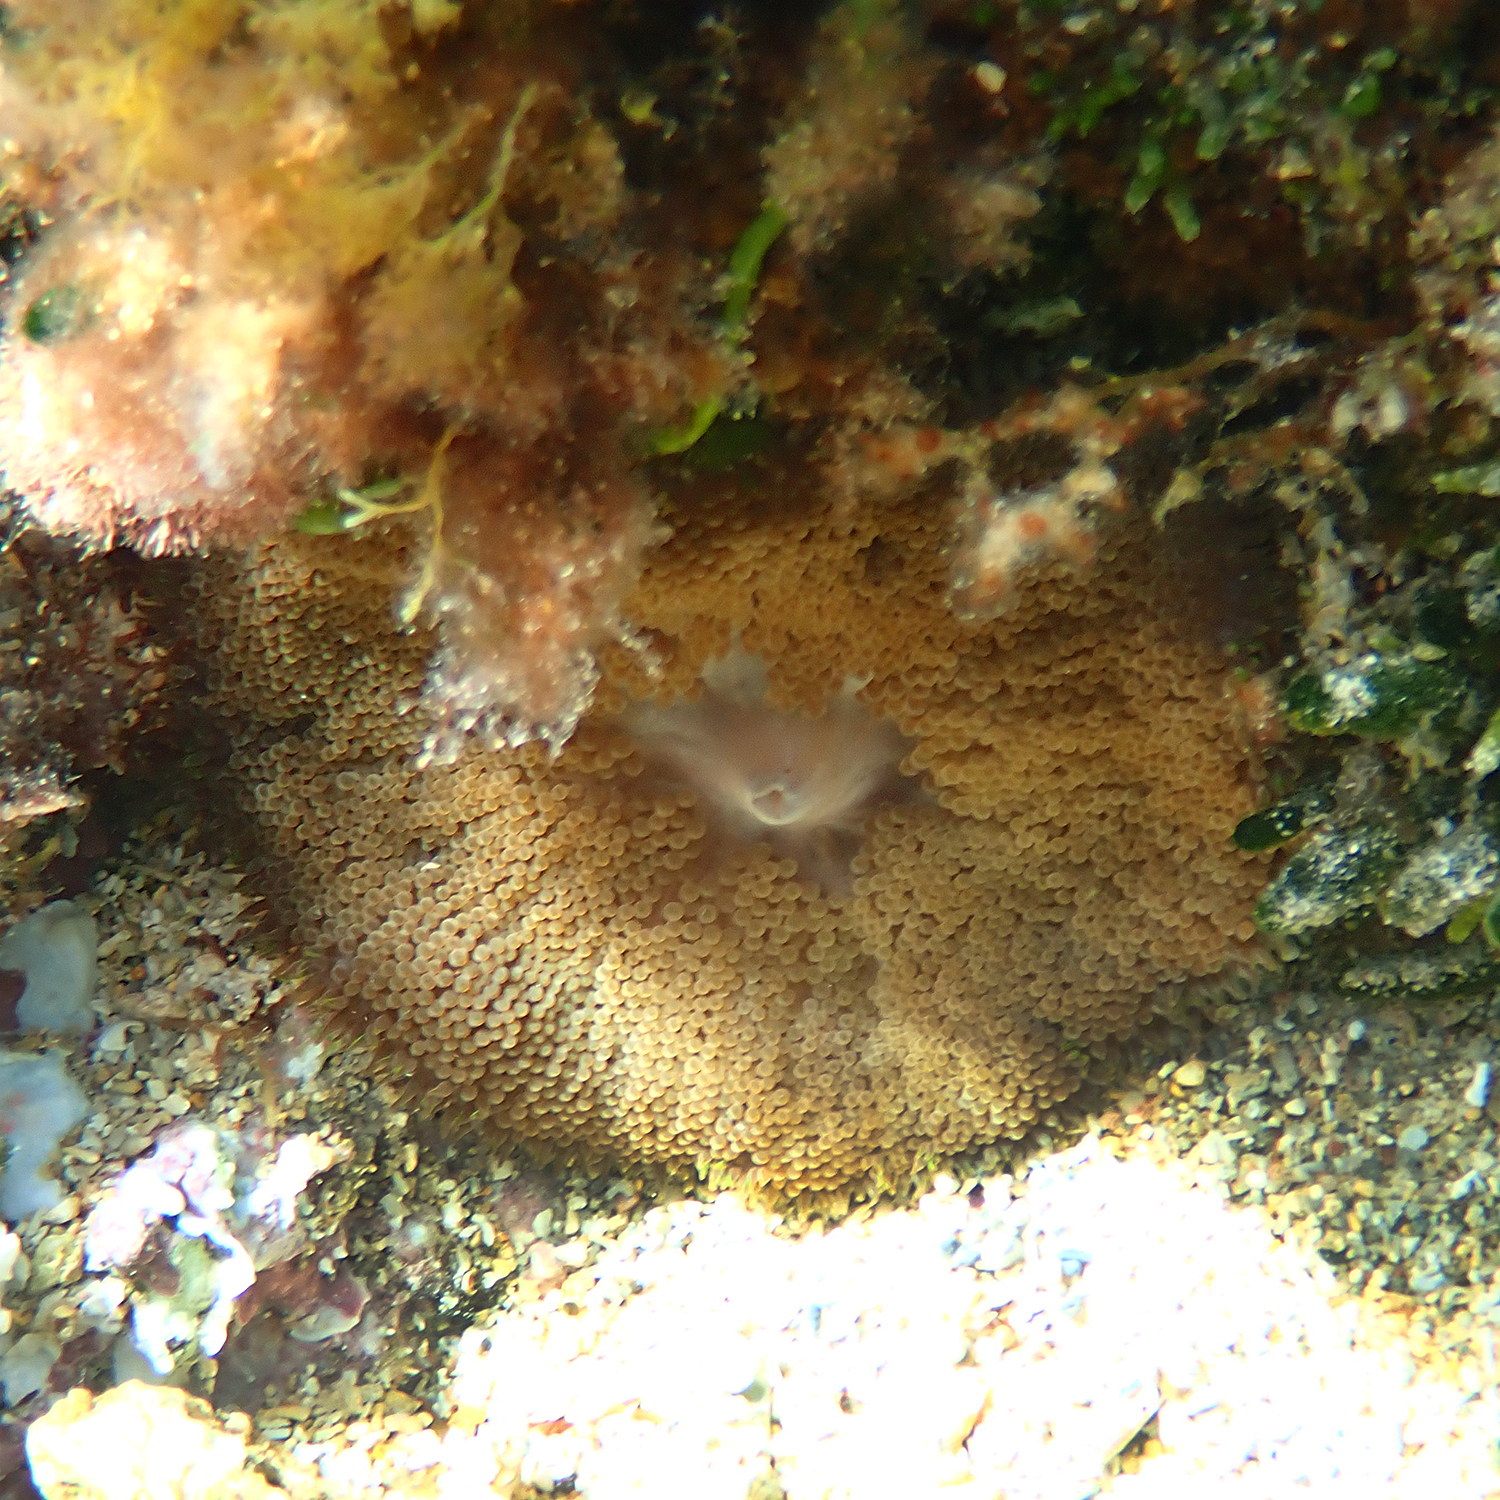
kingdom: Animalia
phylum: Cnidaria
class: Anthozoa
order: Actiniaria
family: Stichodactylidae
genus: Stichodactyla
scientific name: Stichodactyla tapetum
